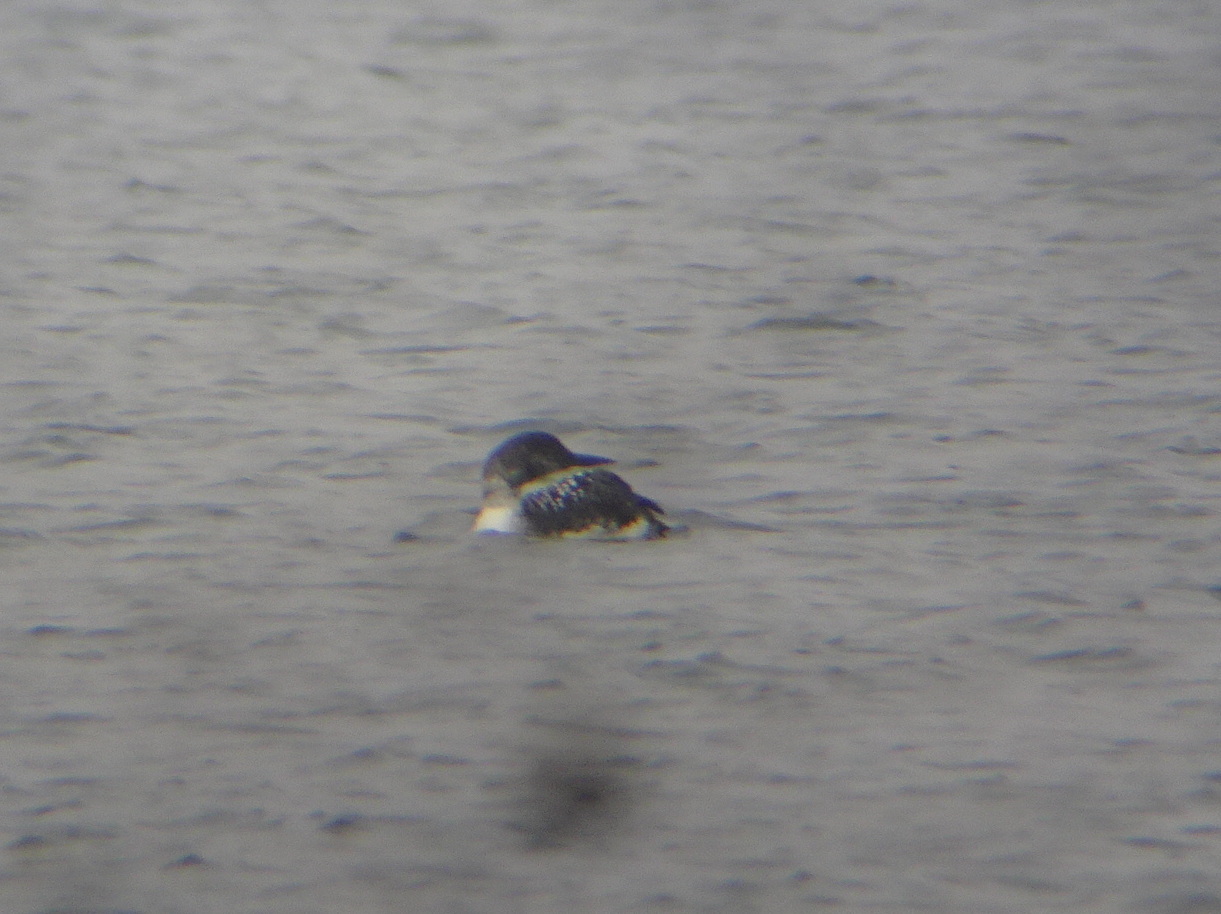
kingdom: Animalia
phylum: Chordata
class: Aves
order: Gaviiformes
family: Gaviidae
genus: Gavia
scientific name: Gavia immer
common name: Common loon
